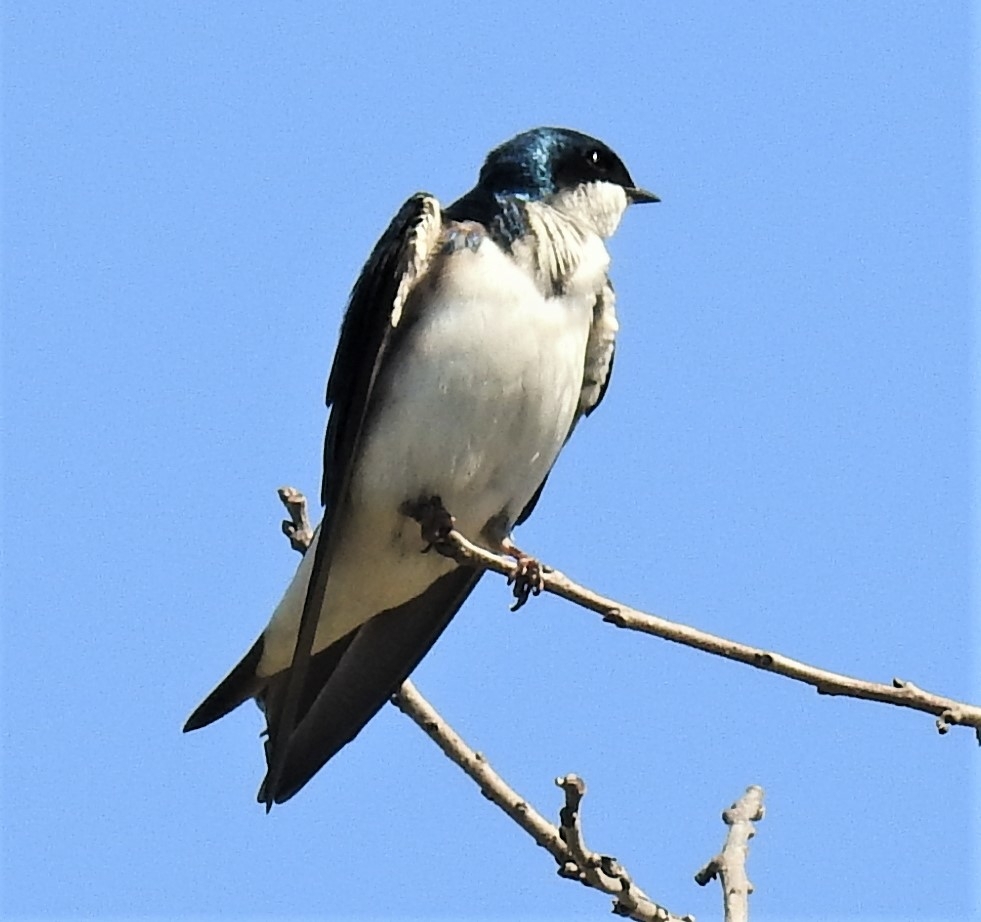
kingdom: Animalia
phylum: Chordata
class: Aves
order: Passeriformes
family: Hirundinidae
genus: Tachycineta
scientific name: Tachycineta bicolor
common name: Tree swallow
